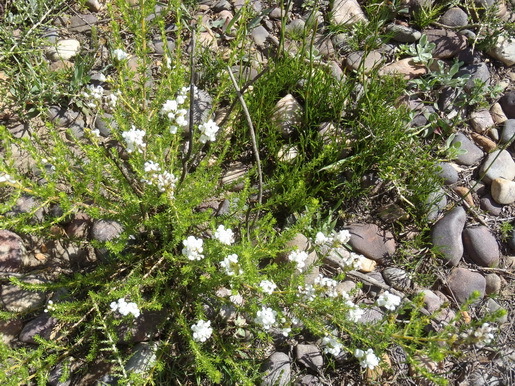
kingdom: Plantae
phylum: Tracheophyta
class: Magnoliopsida
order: Fabales
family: Fabaceae
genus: Aspalathus
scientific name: Aspalathus nigra
